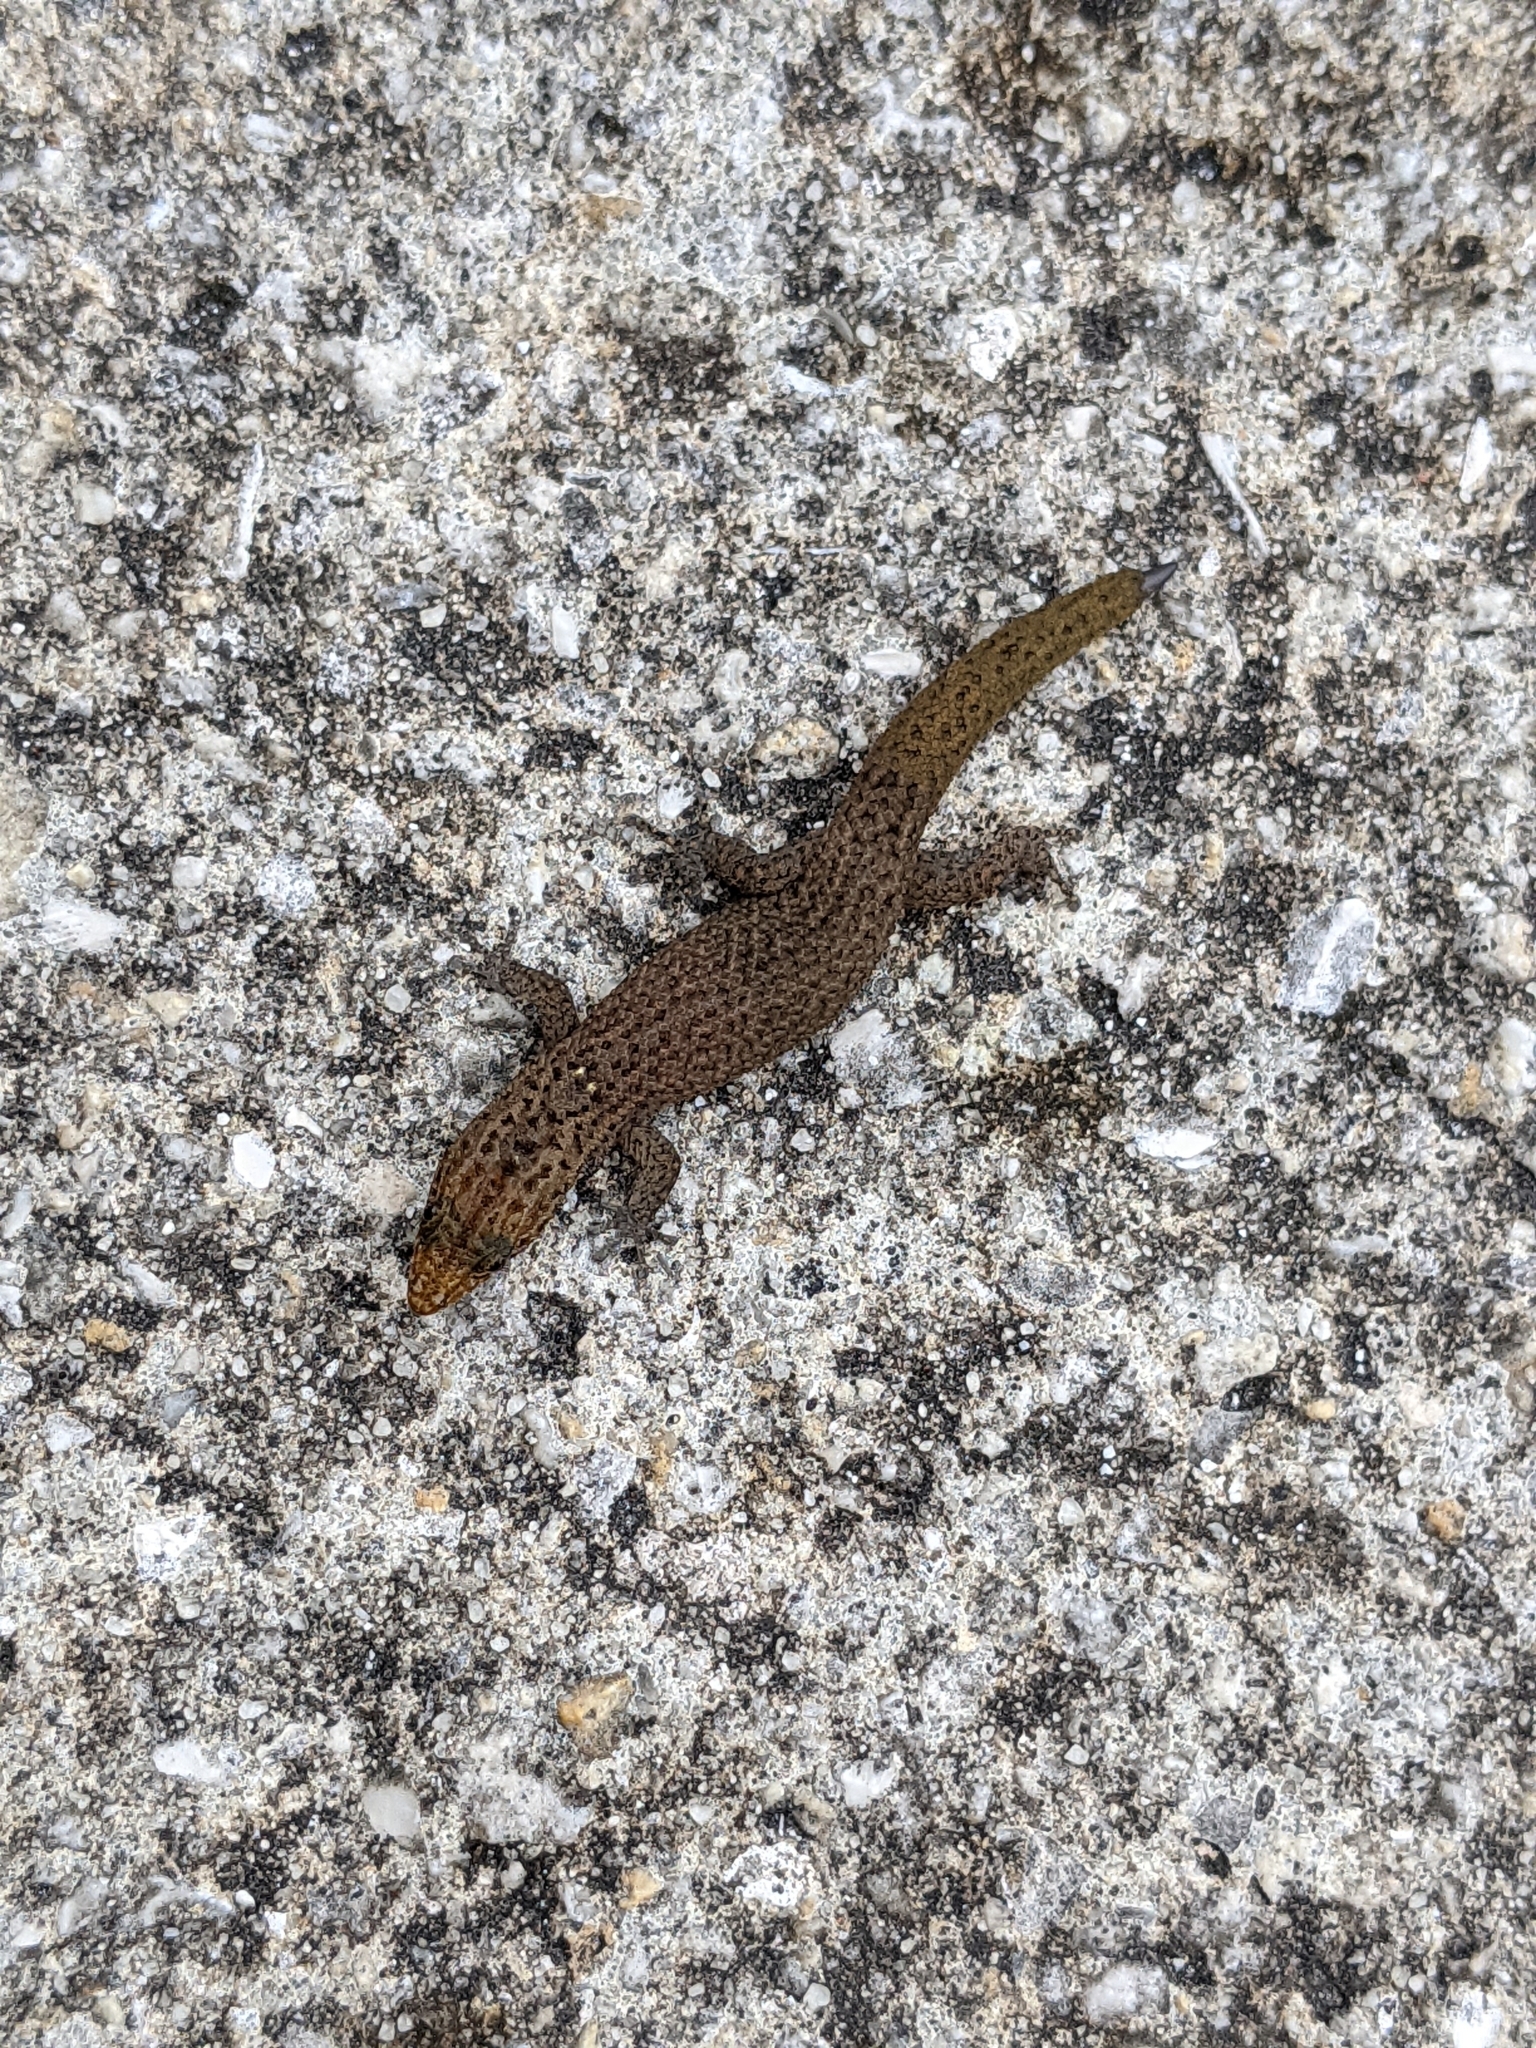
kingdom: Animalia
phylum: Chordata
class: Squamata
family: Sphaerodactylidae
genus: Sphaerodactylus
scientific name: Sphaerodactylus notatus
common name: Brown-speckled sphaero
